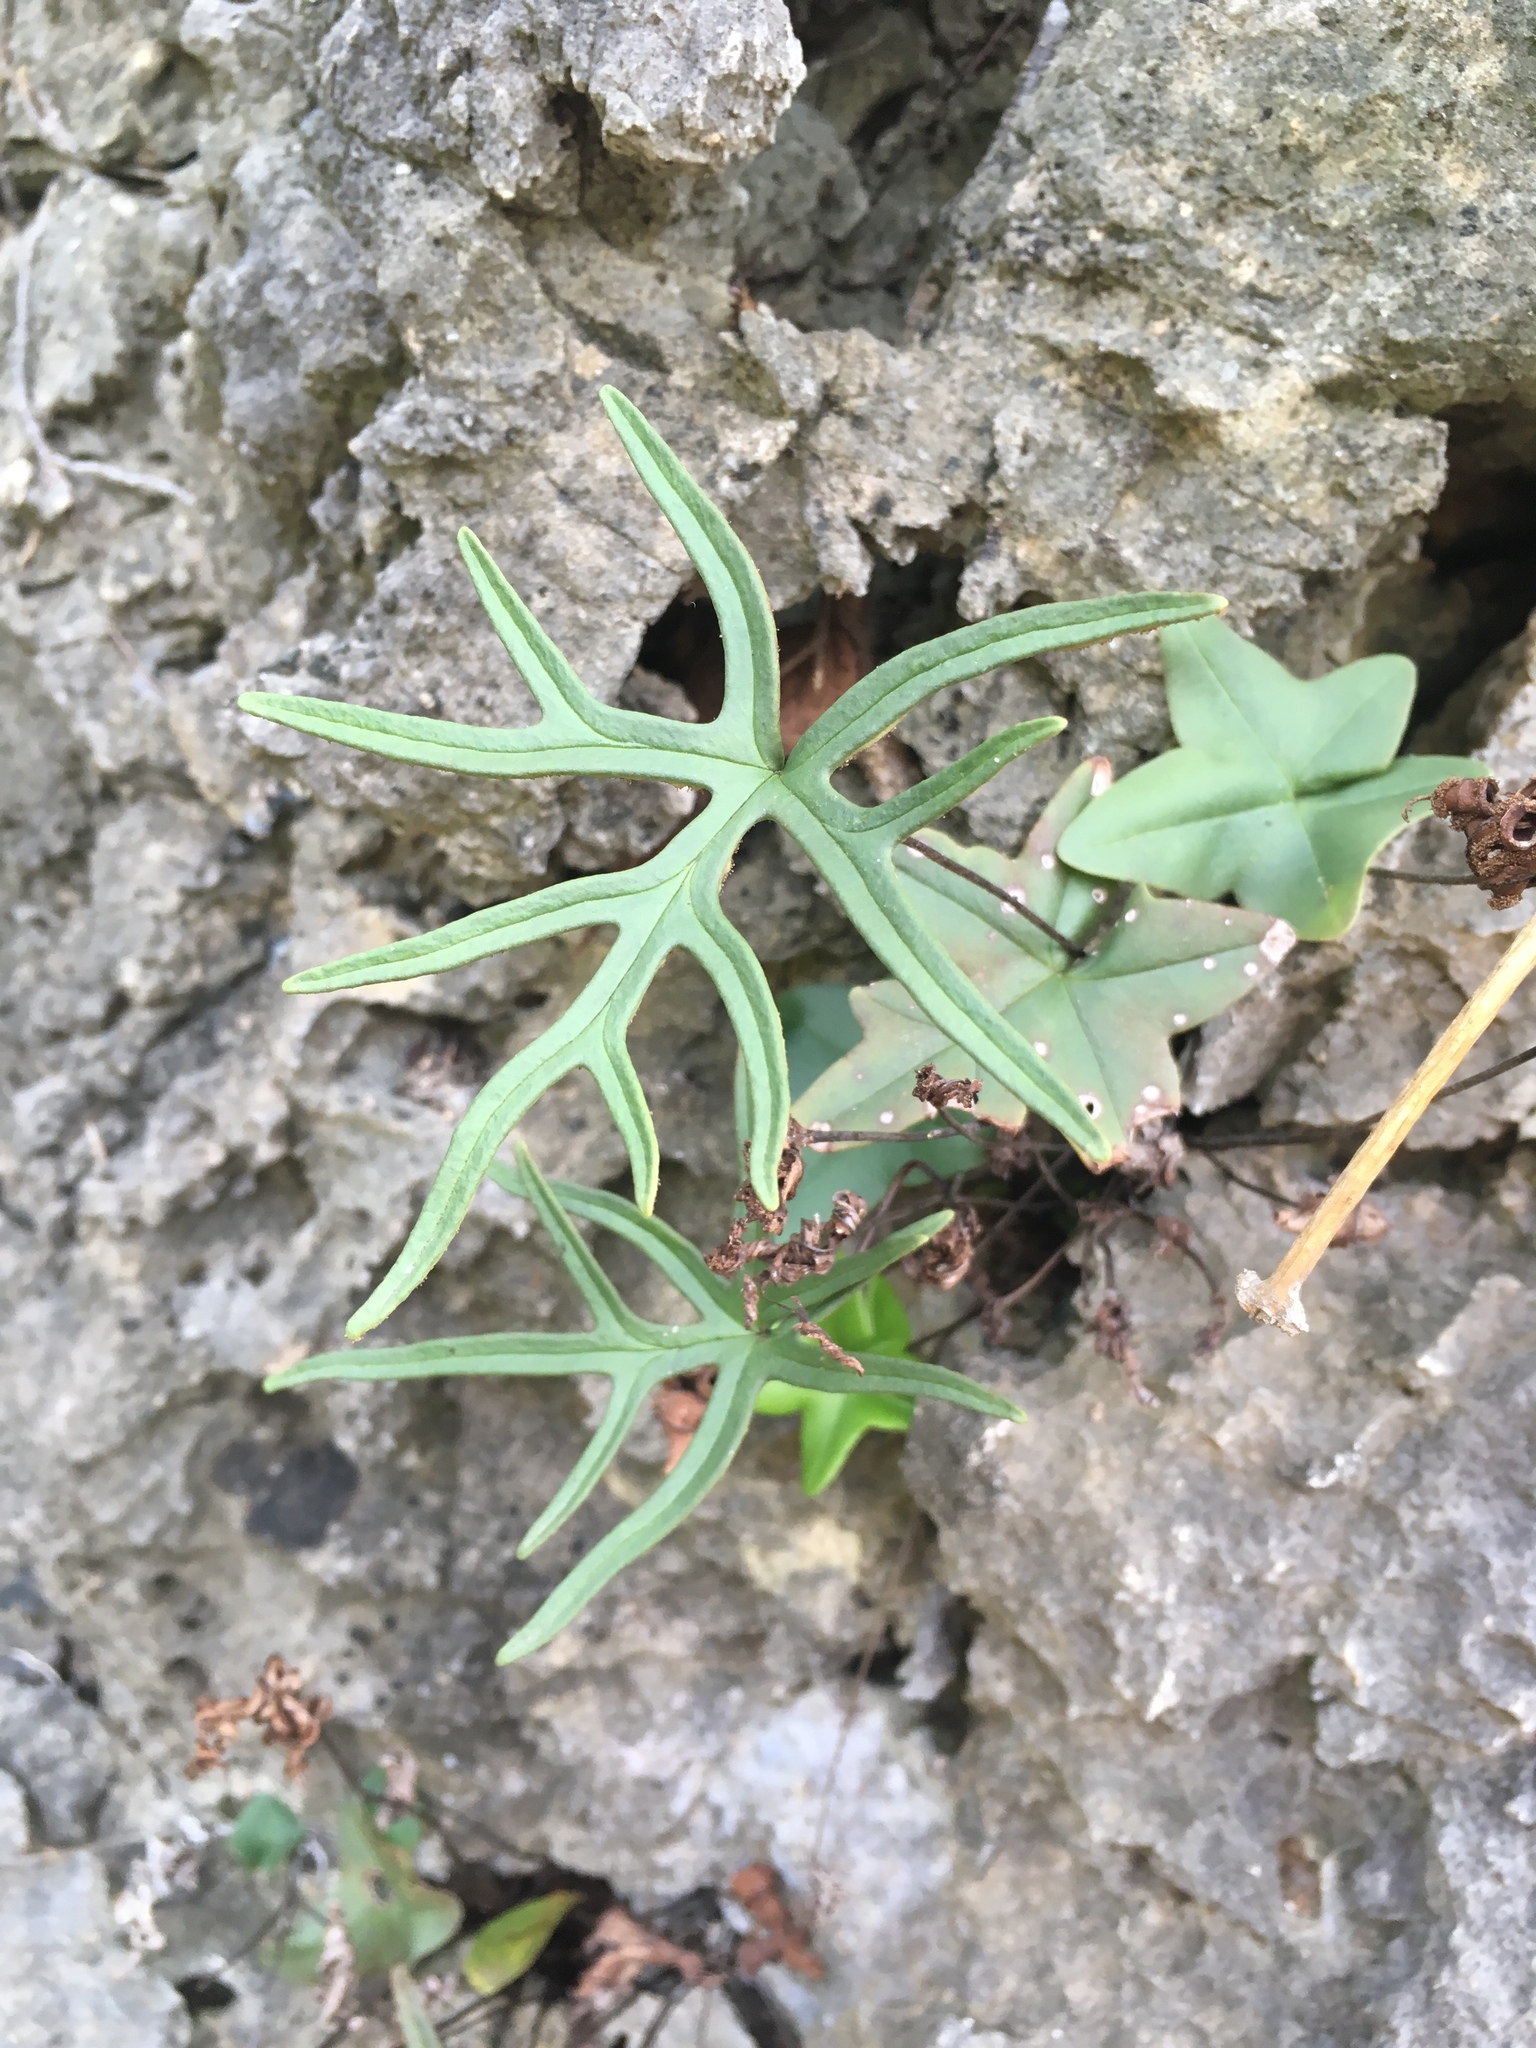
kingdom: Plantae
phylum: Tracheophyta
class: Polypodiopsida
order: Polypodiales
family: Pteridaceae
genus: Calciphilopteris
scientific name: Calciphilopteris ludens
